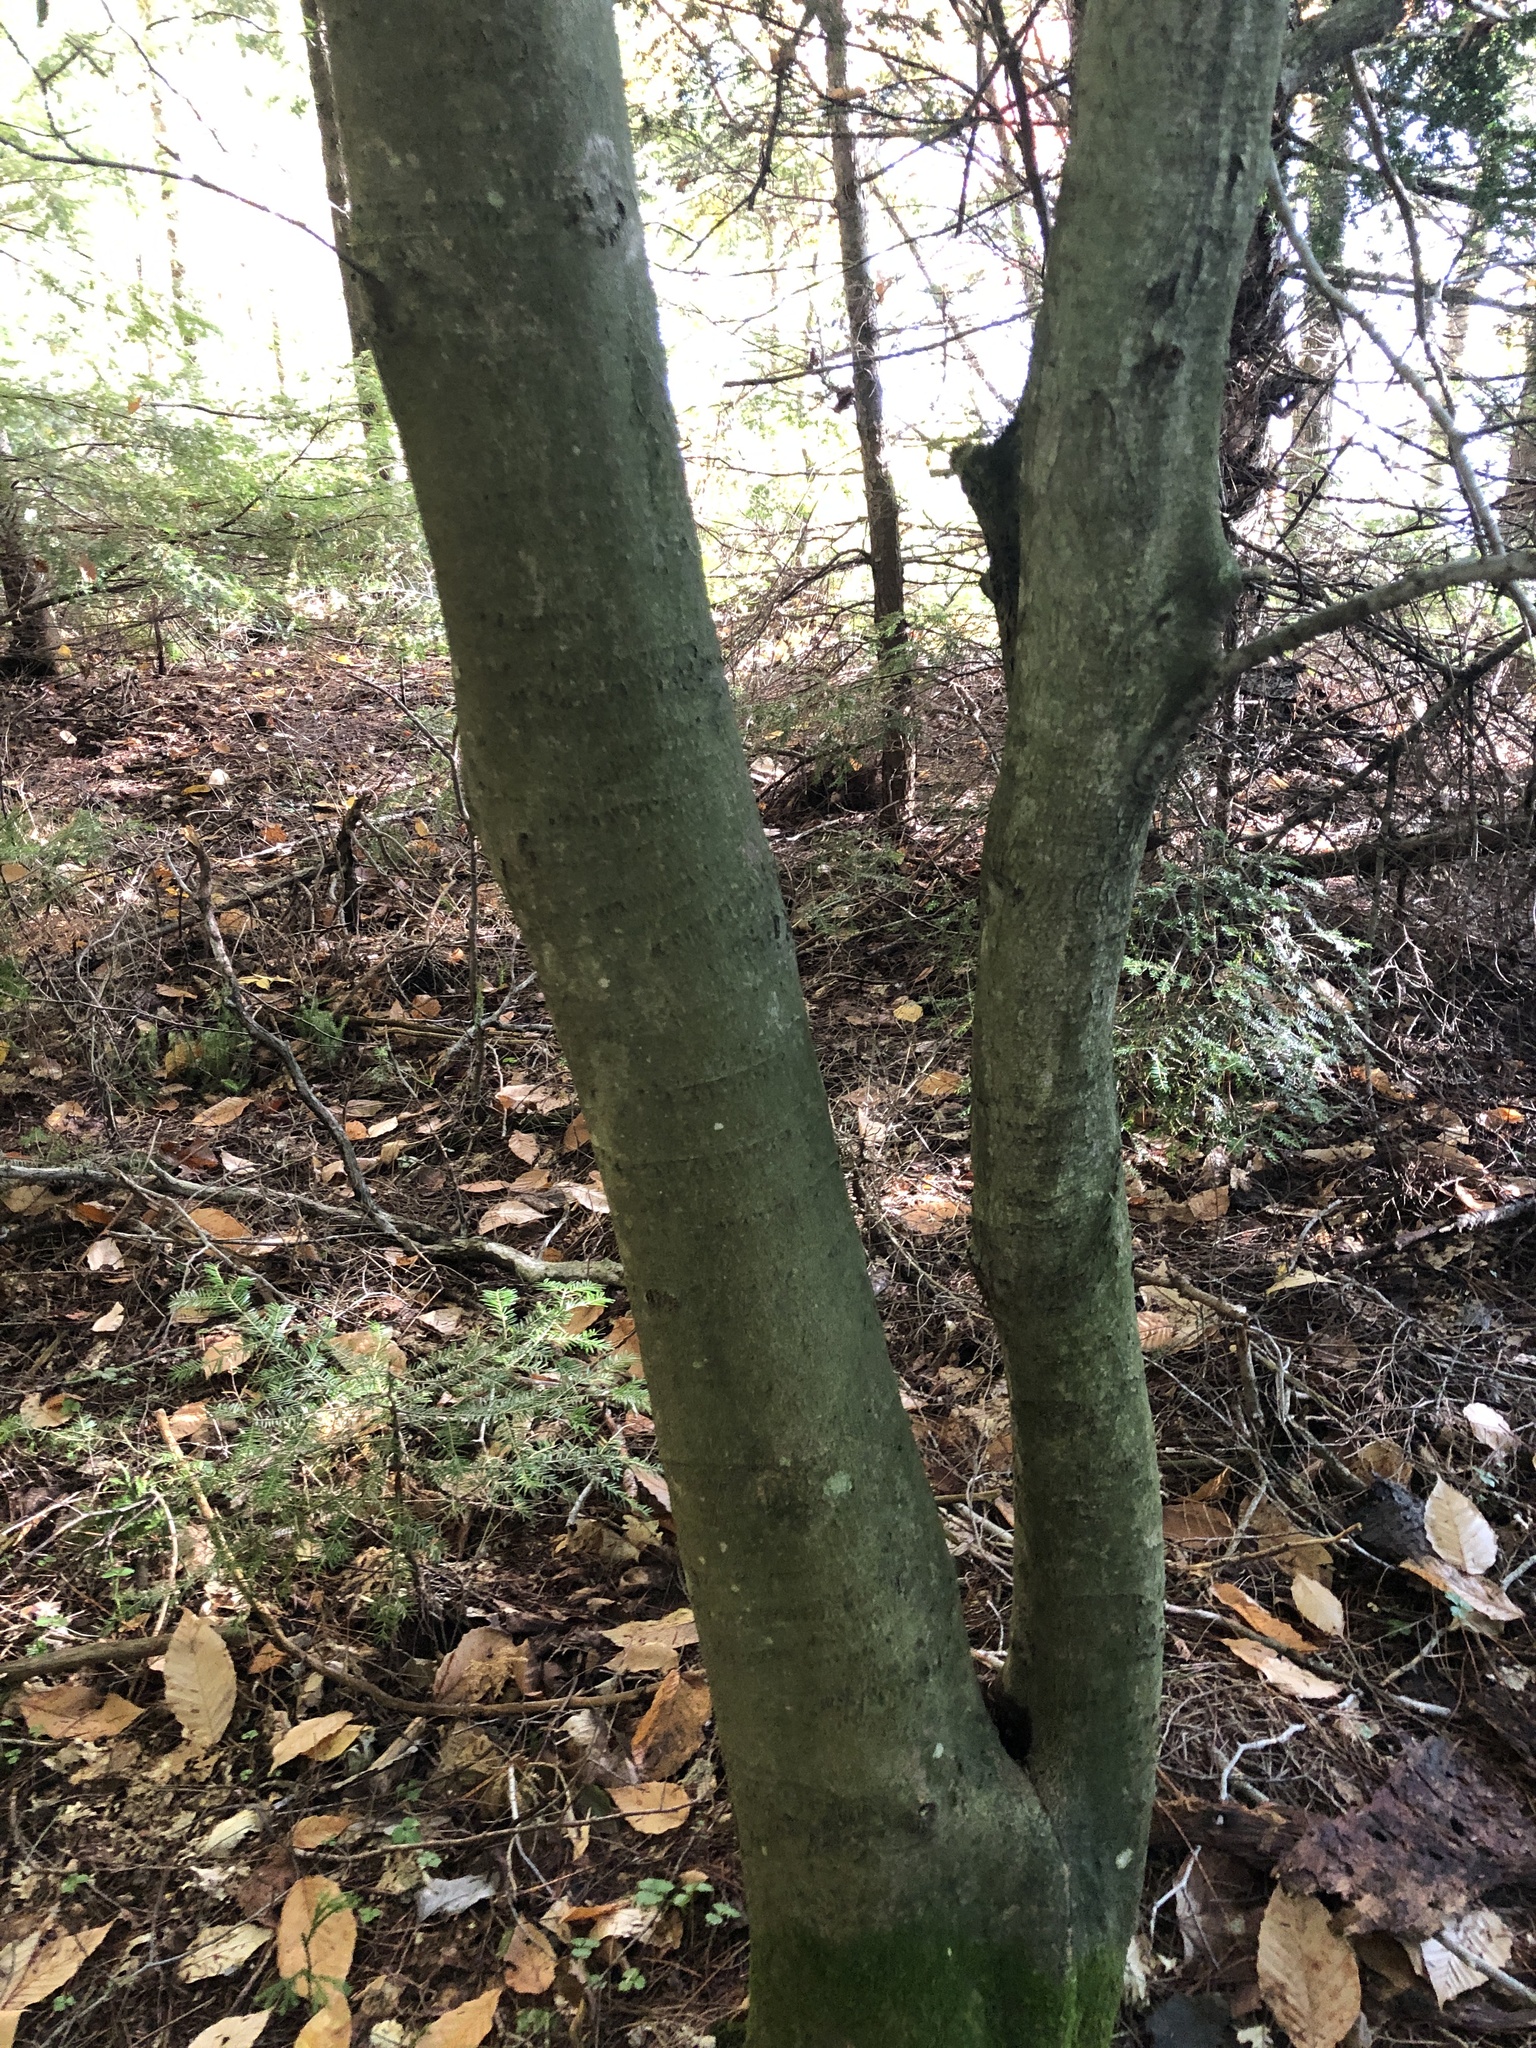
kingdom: Plantae
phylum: Tracheophyta
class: Magnoliopsida
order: Fagales
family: Fagaceae
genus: Fagus
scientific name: Fagus grandifolia
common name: American beech
